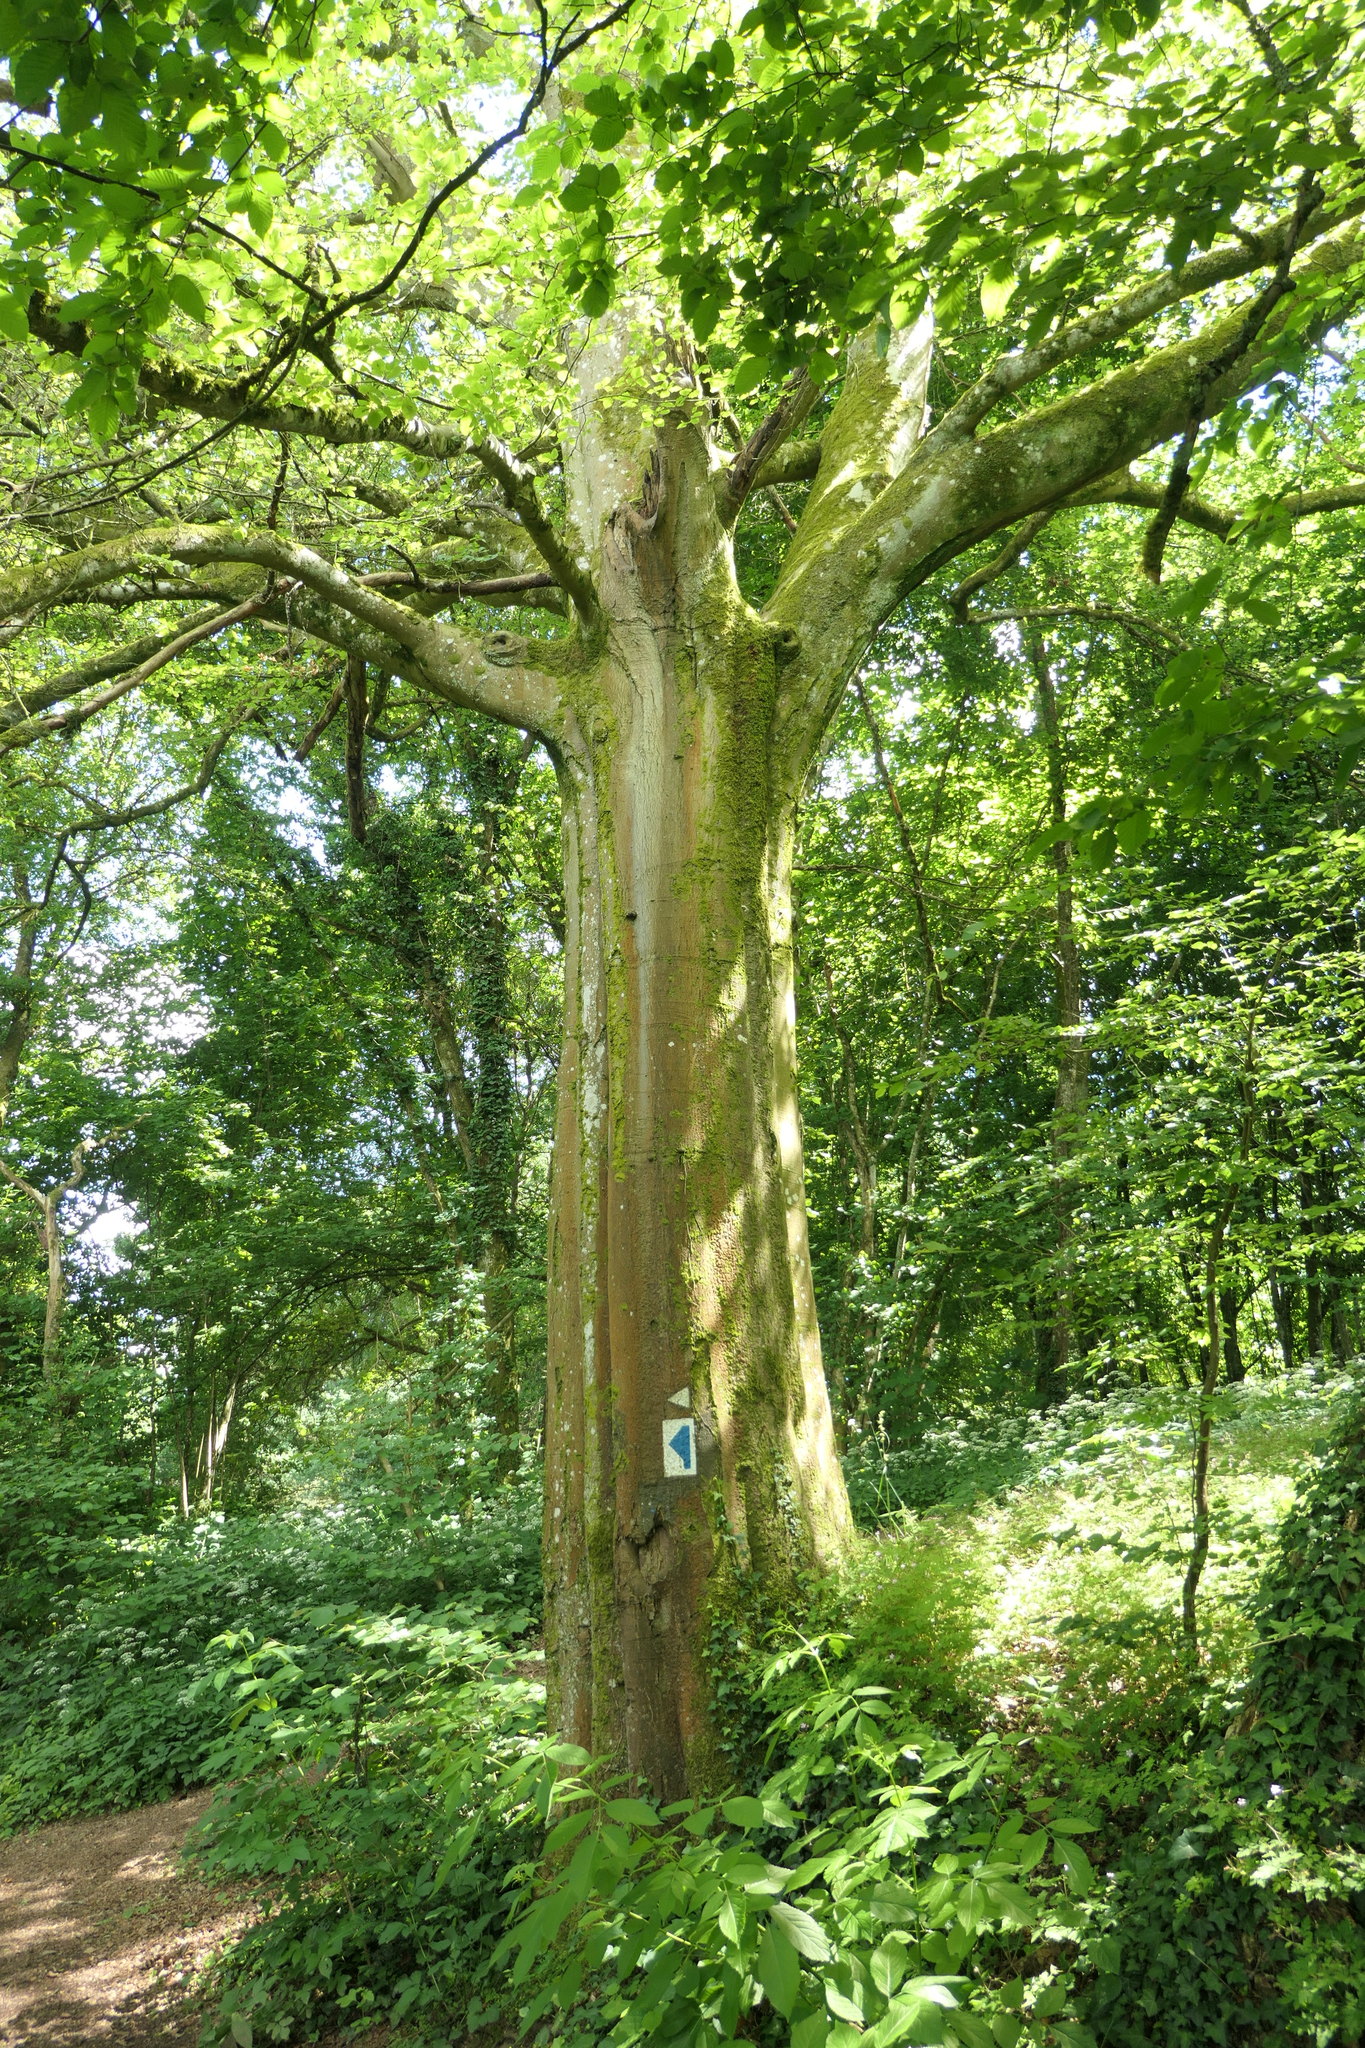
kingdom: Plantae
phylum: Tracheophyta
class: Magnoliopsida
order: Fagales
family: Fagaceae
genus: Fagus
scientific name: Fagus sylvatica
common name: Beech
